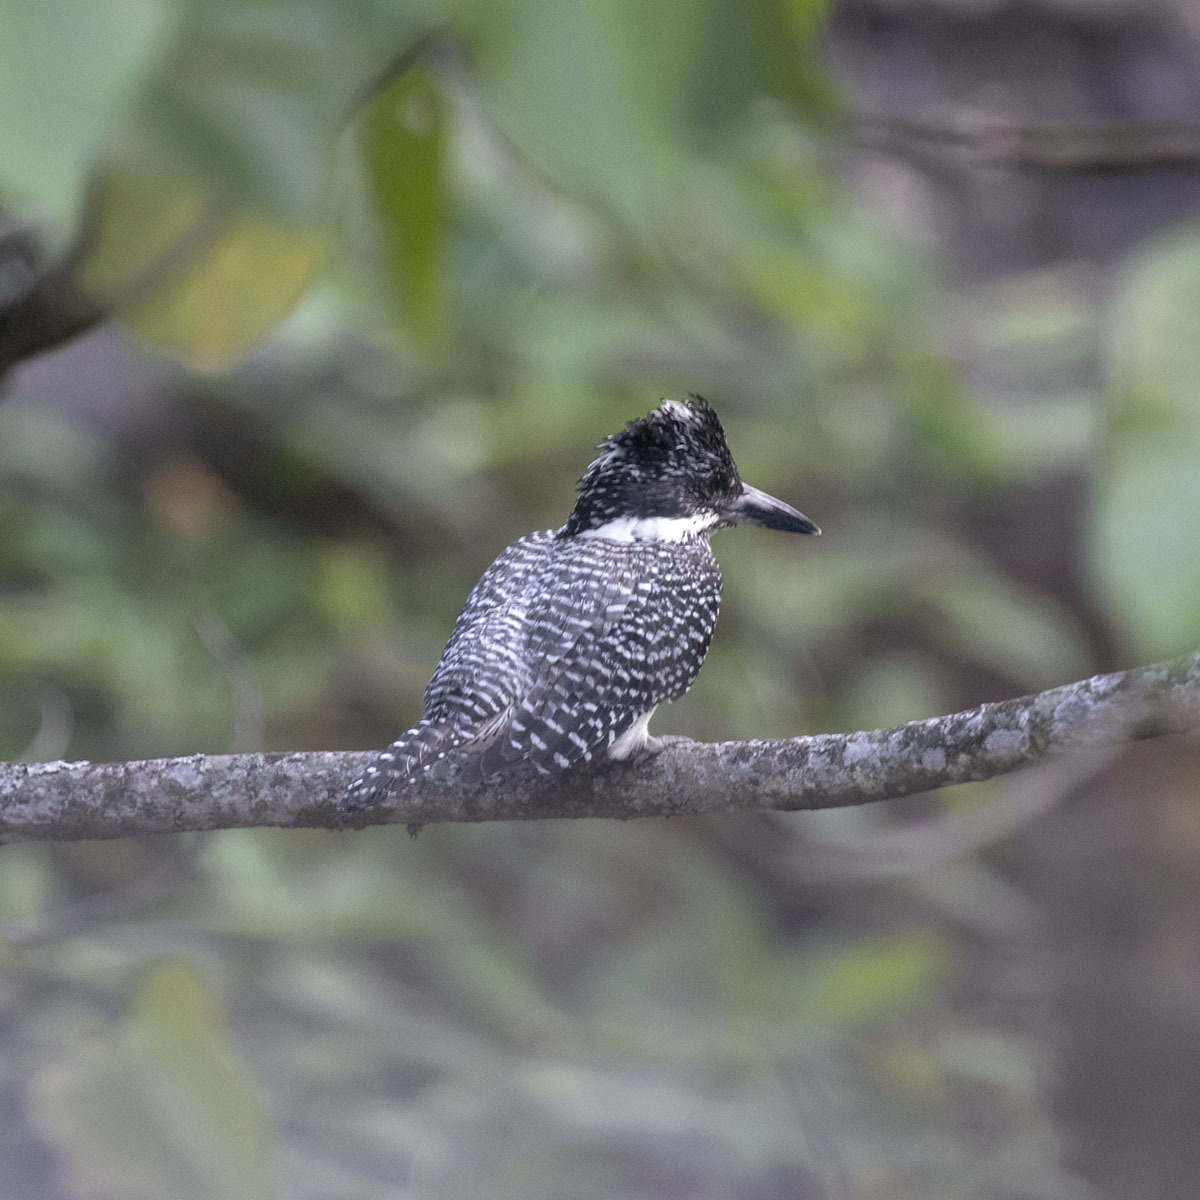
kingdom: Animalia
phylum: Chordata
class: Aves
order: Coraciiformes
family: Alcedinidae
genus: Megaceryle
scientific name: Megaceryle lugubris
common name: Crested kingfisher
